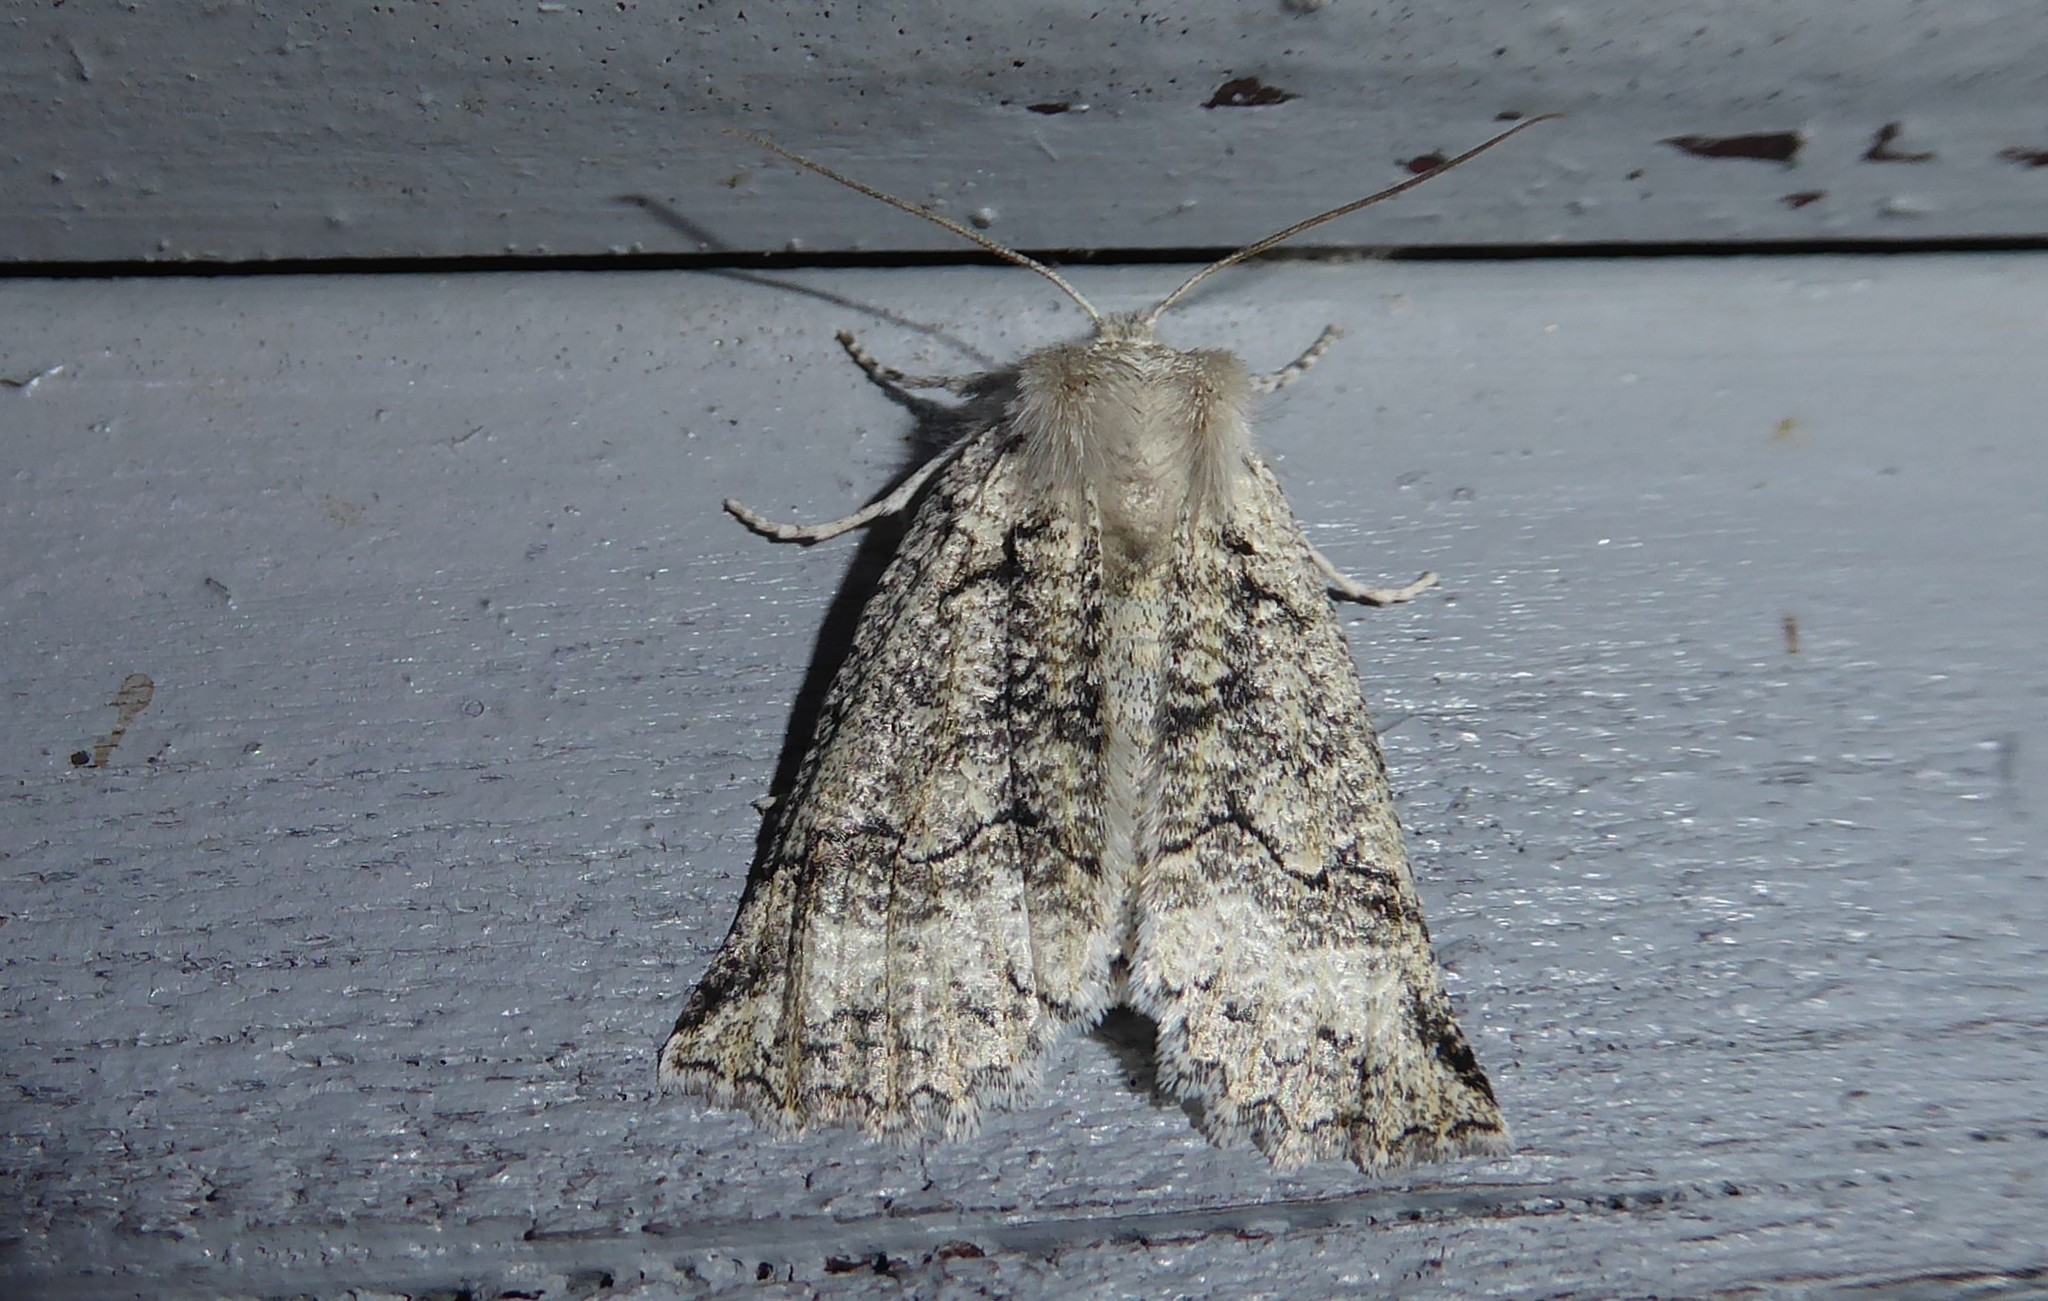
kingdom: Animalia
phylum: Arthropoda
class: Insecta
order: Lepidoptera
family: Geometridae
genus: Declana
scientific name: Declana floccosa
